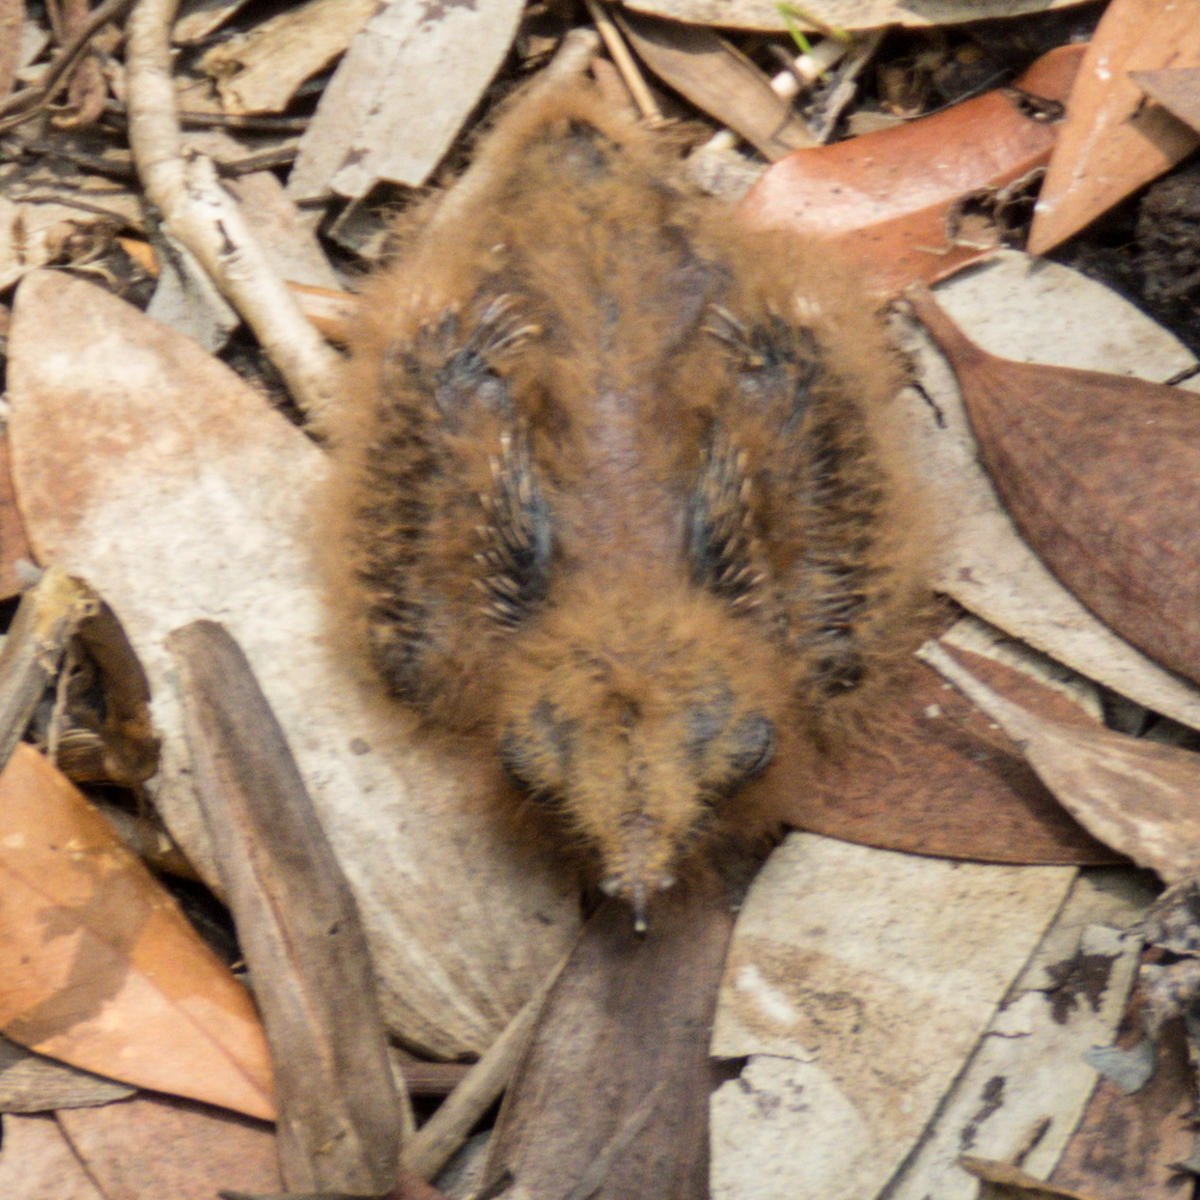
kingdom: Animalia
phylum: Chordata
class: Aves
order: Caprimulgiformes
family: Caprimulgidae
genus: Caprimulgus
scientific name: Caprimulgus macrurus
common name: Large-tailed nightjar
